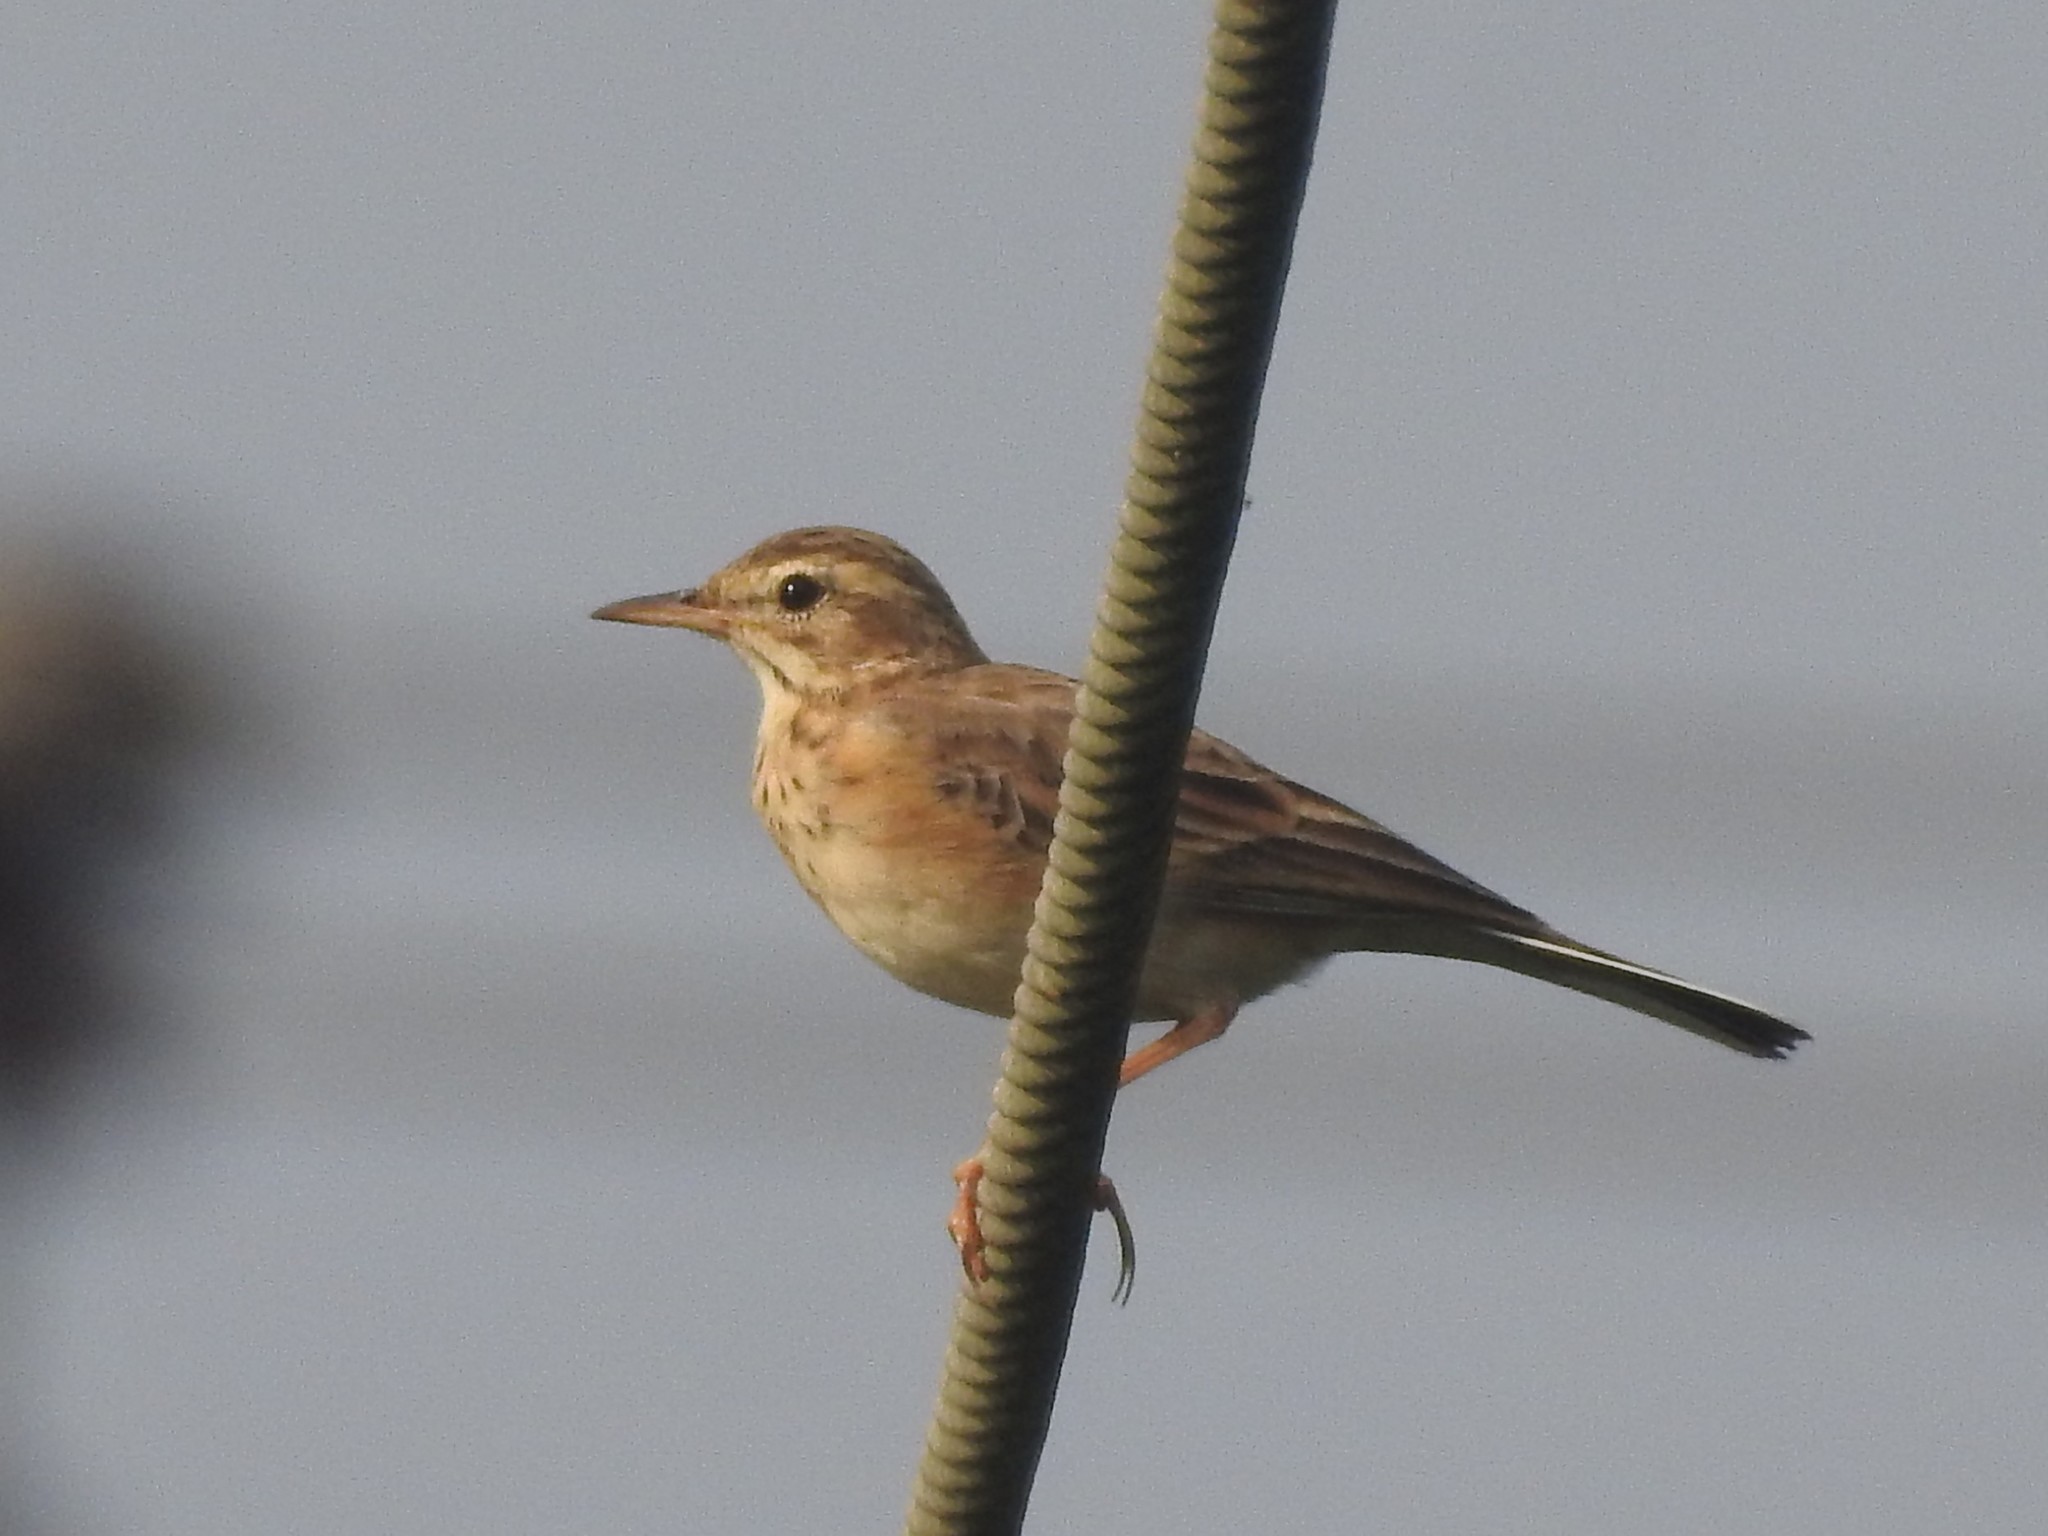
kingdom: Animalia
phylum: Chordata
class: Aves
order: Passeriformes
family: Motacillidae
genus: Anthus
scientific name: Anthus rufulus
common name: Paddyfield pipit
